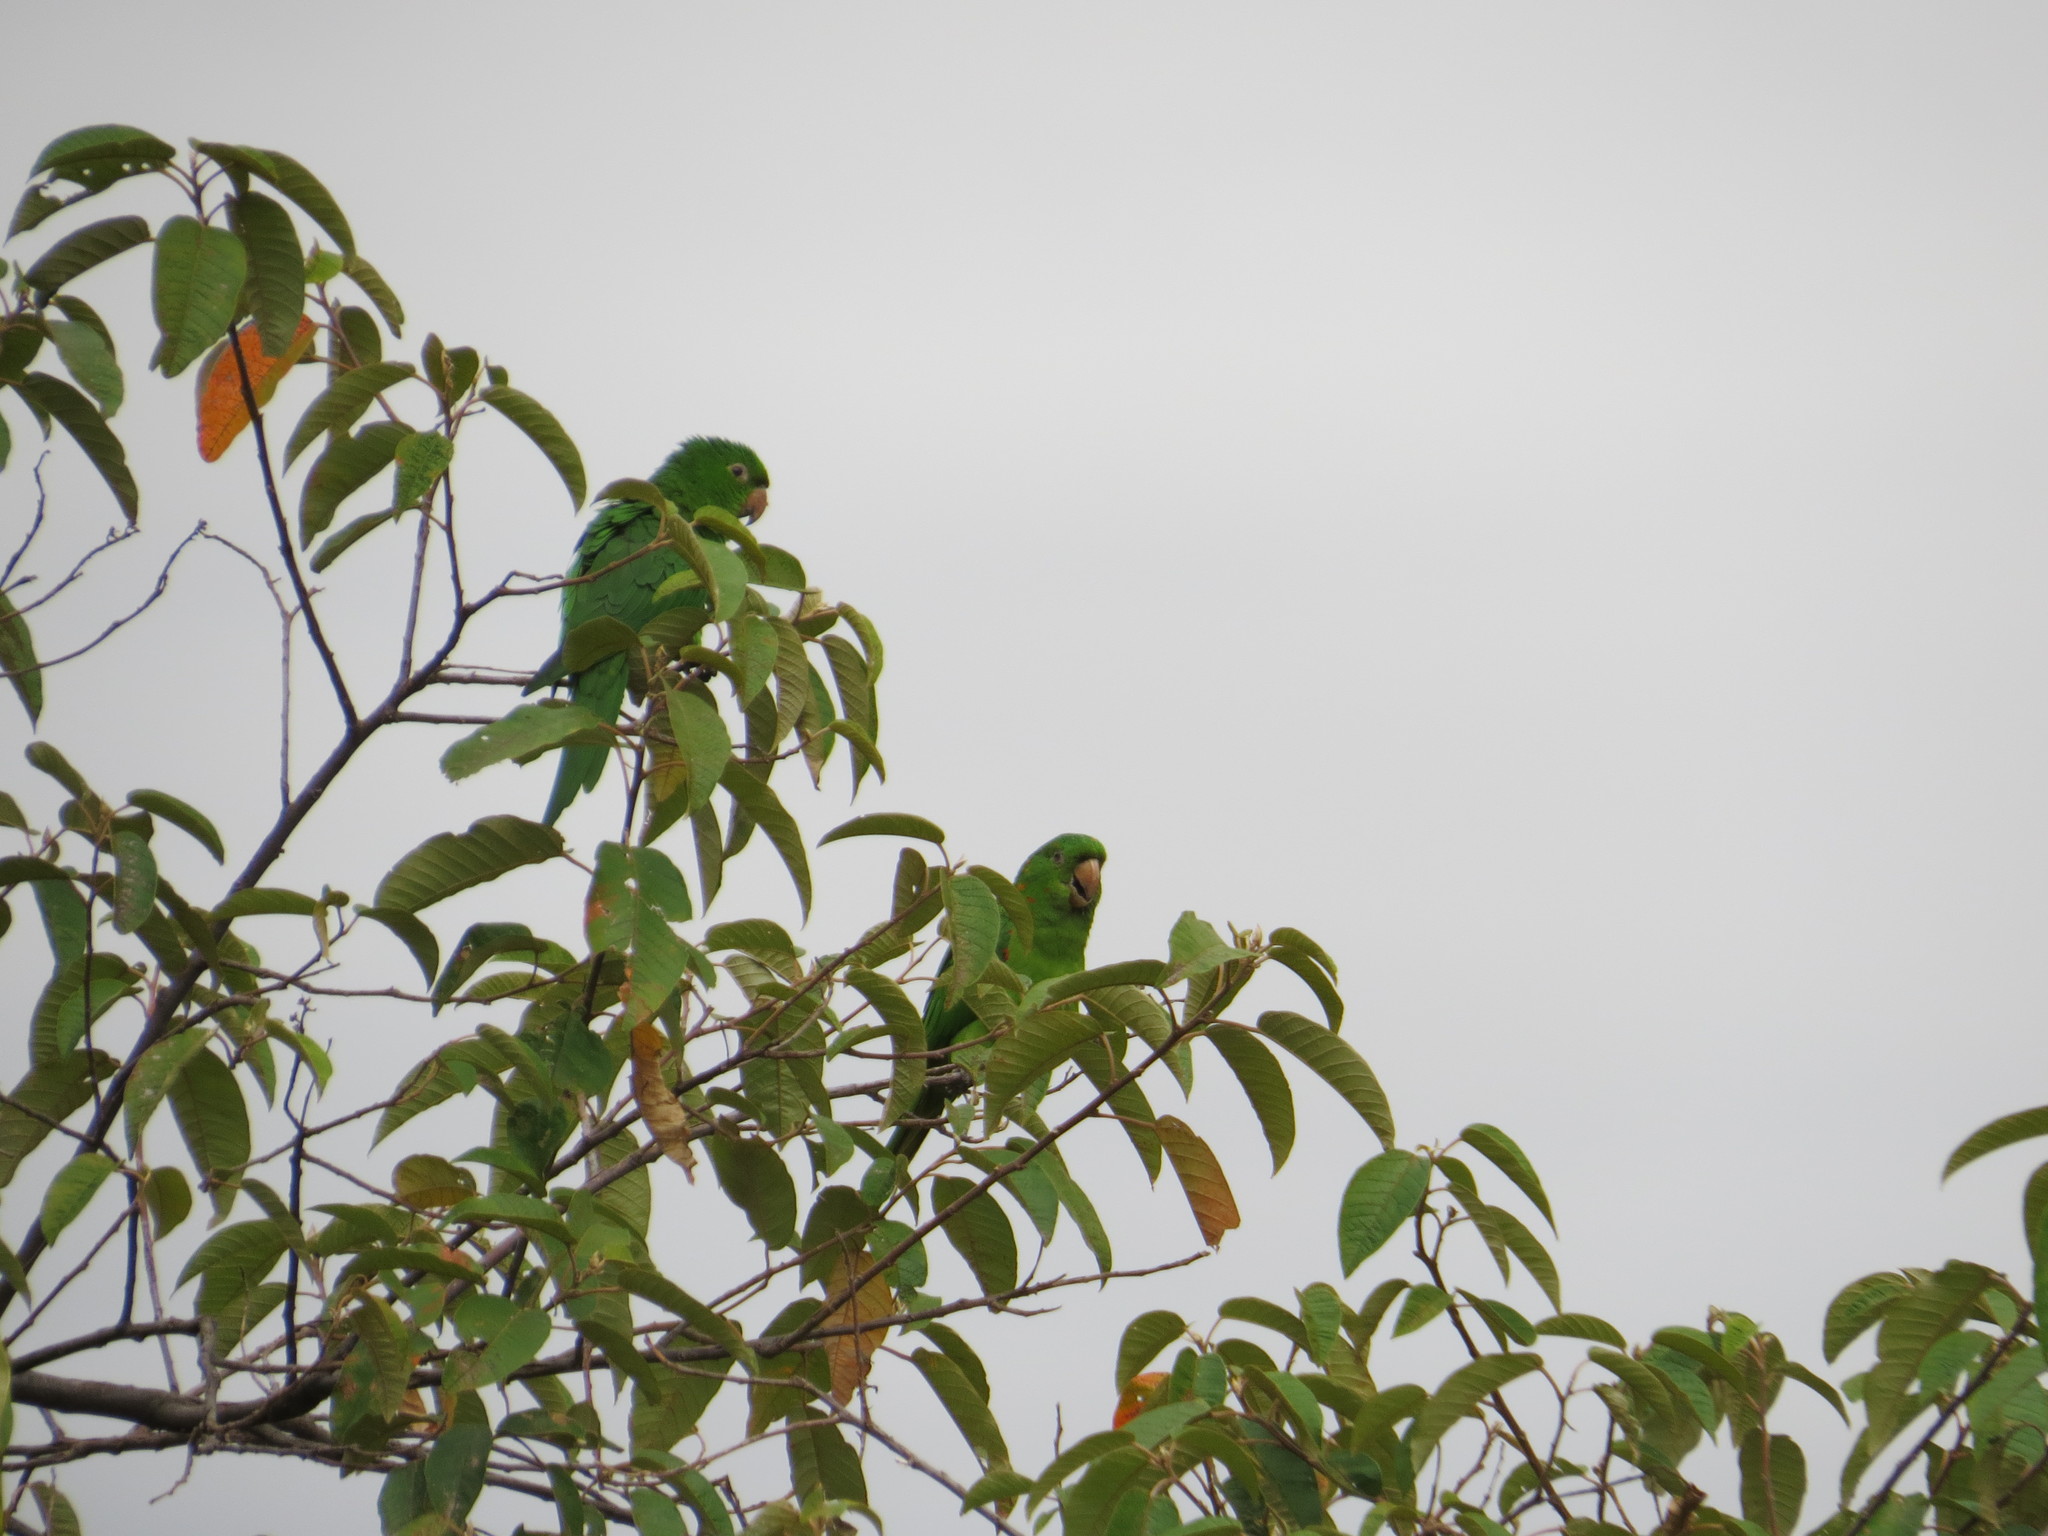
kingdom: Animalia
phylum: Chordata
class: Aves
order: Psittaciformes
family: Psittacidae
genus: Aratinga
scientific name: Aratinga leucophthalma
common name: White-eyed parakeet
